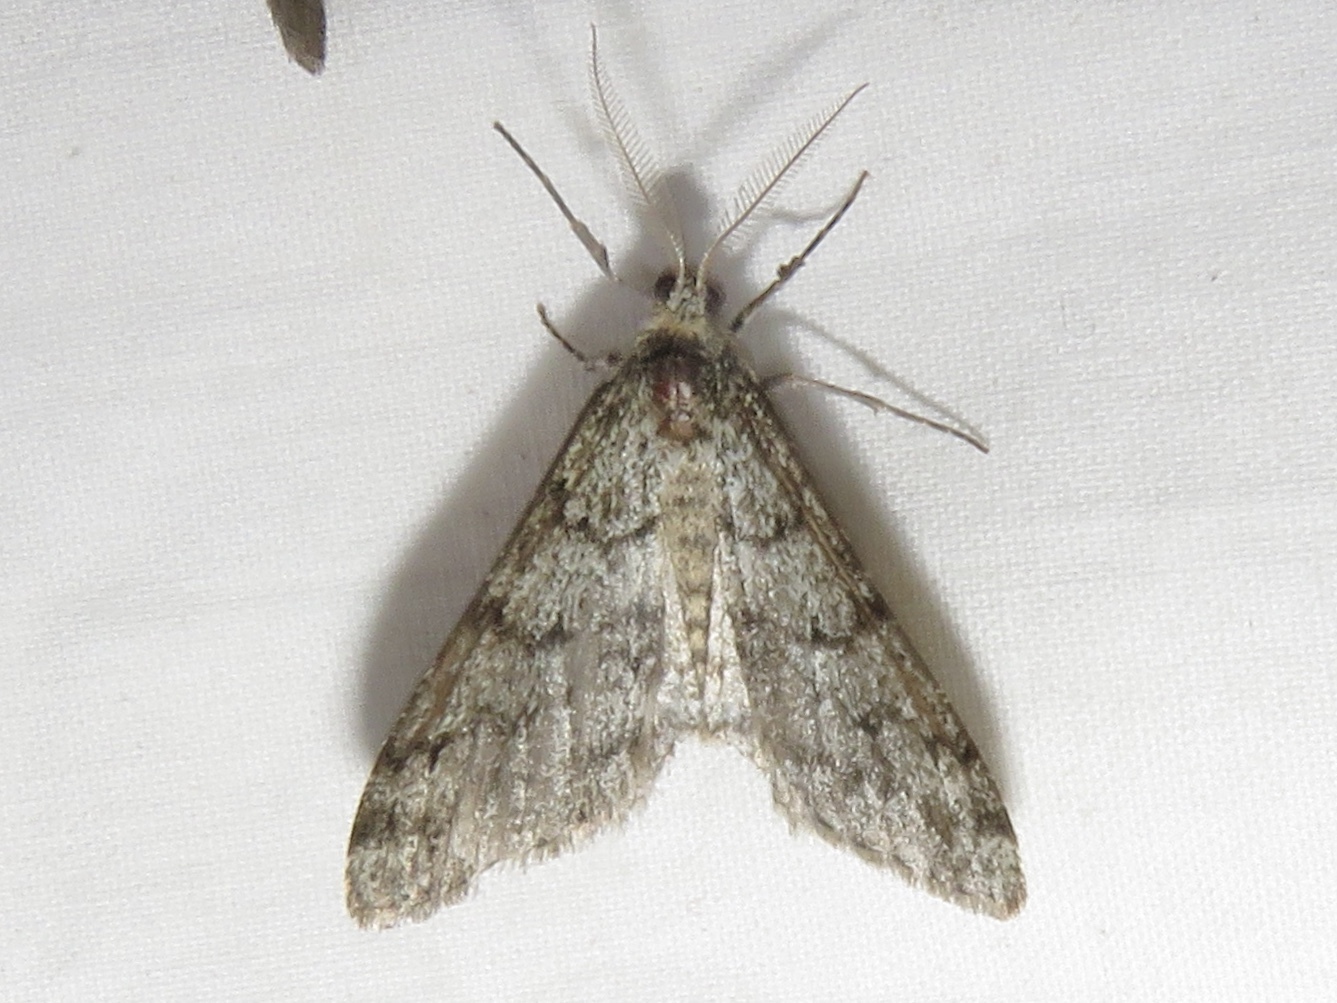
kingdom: Animalia
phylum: Arthropoda
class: Insecta
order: Lepidoptera
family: Geometridae
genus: Phigalia
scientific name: Phigalia strigataria
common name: Small phigalia
